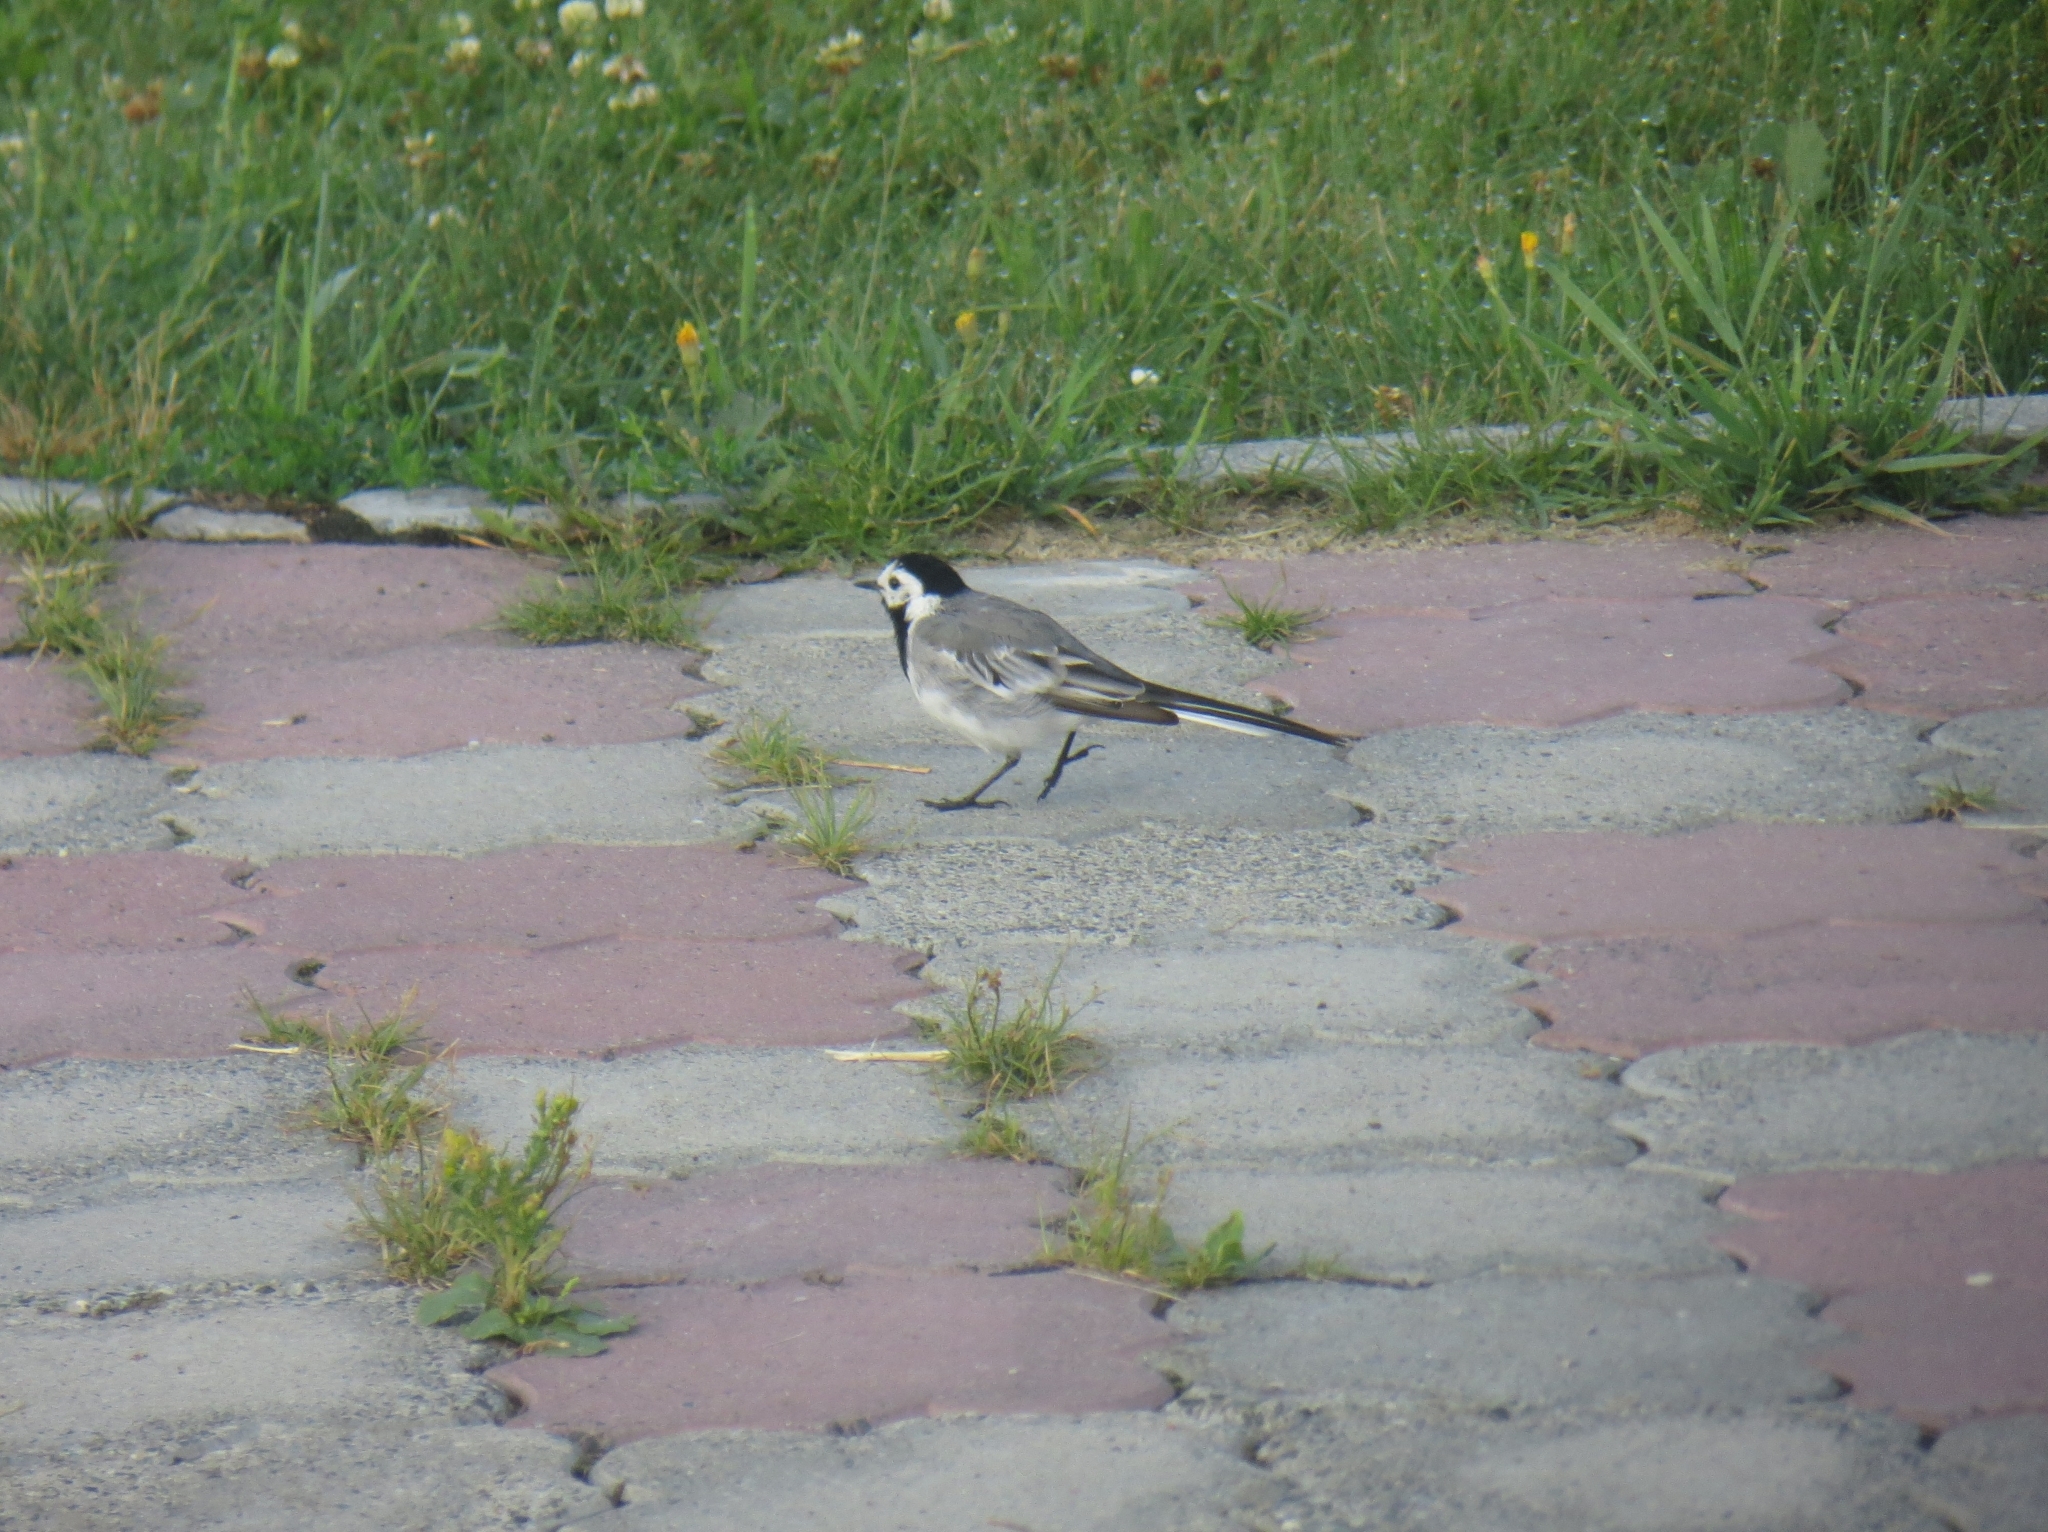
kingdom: Animalia
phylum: Chordata
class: Aves
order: Passeriformes
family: Motacillidae
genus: Motacilla
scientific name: Motacilla alba
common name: White wagtail
